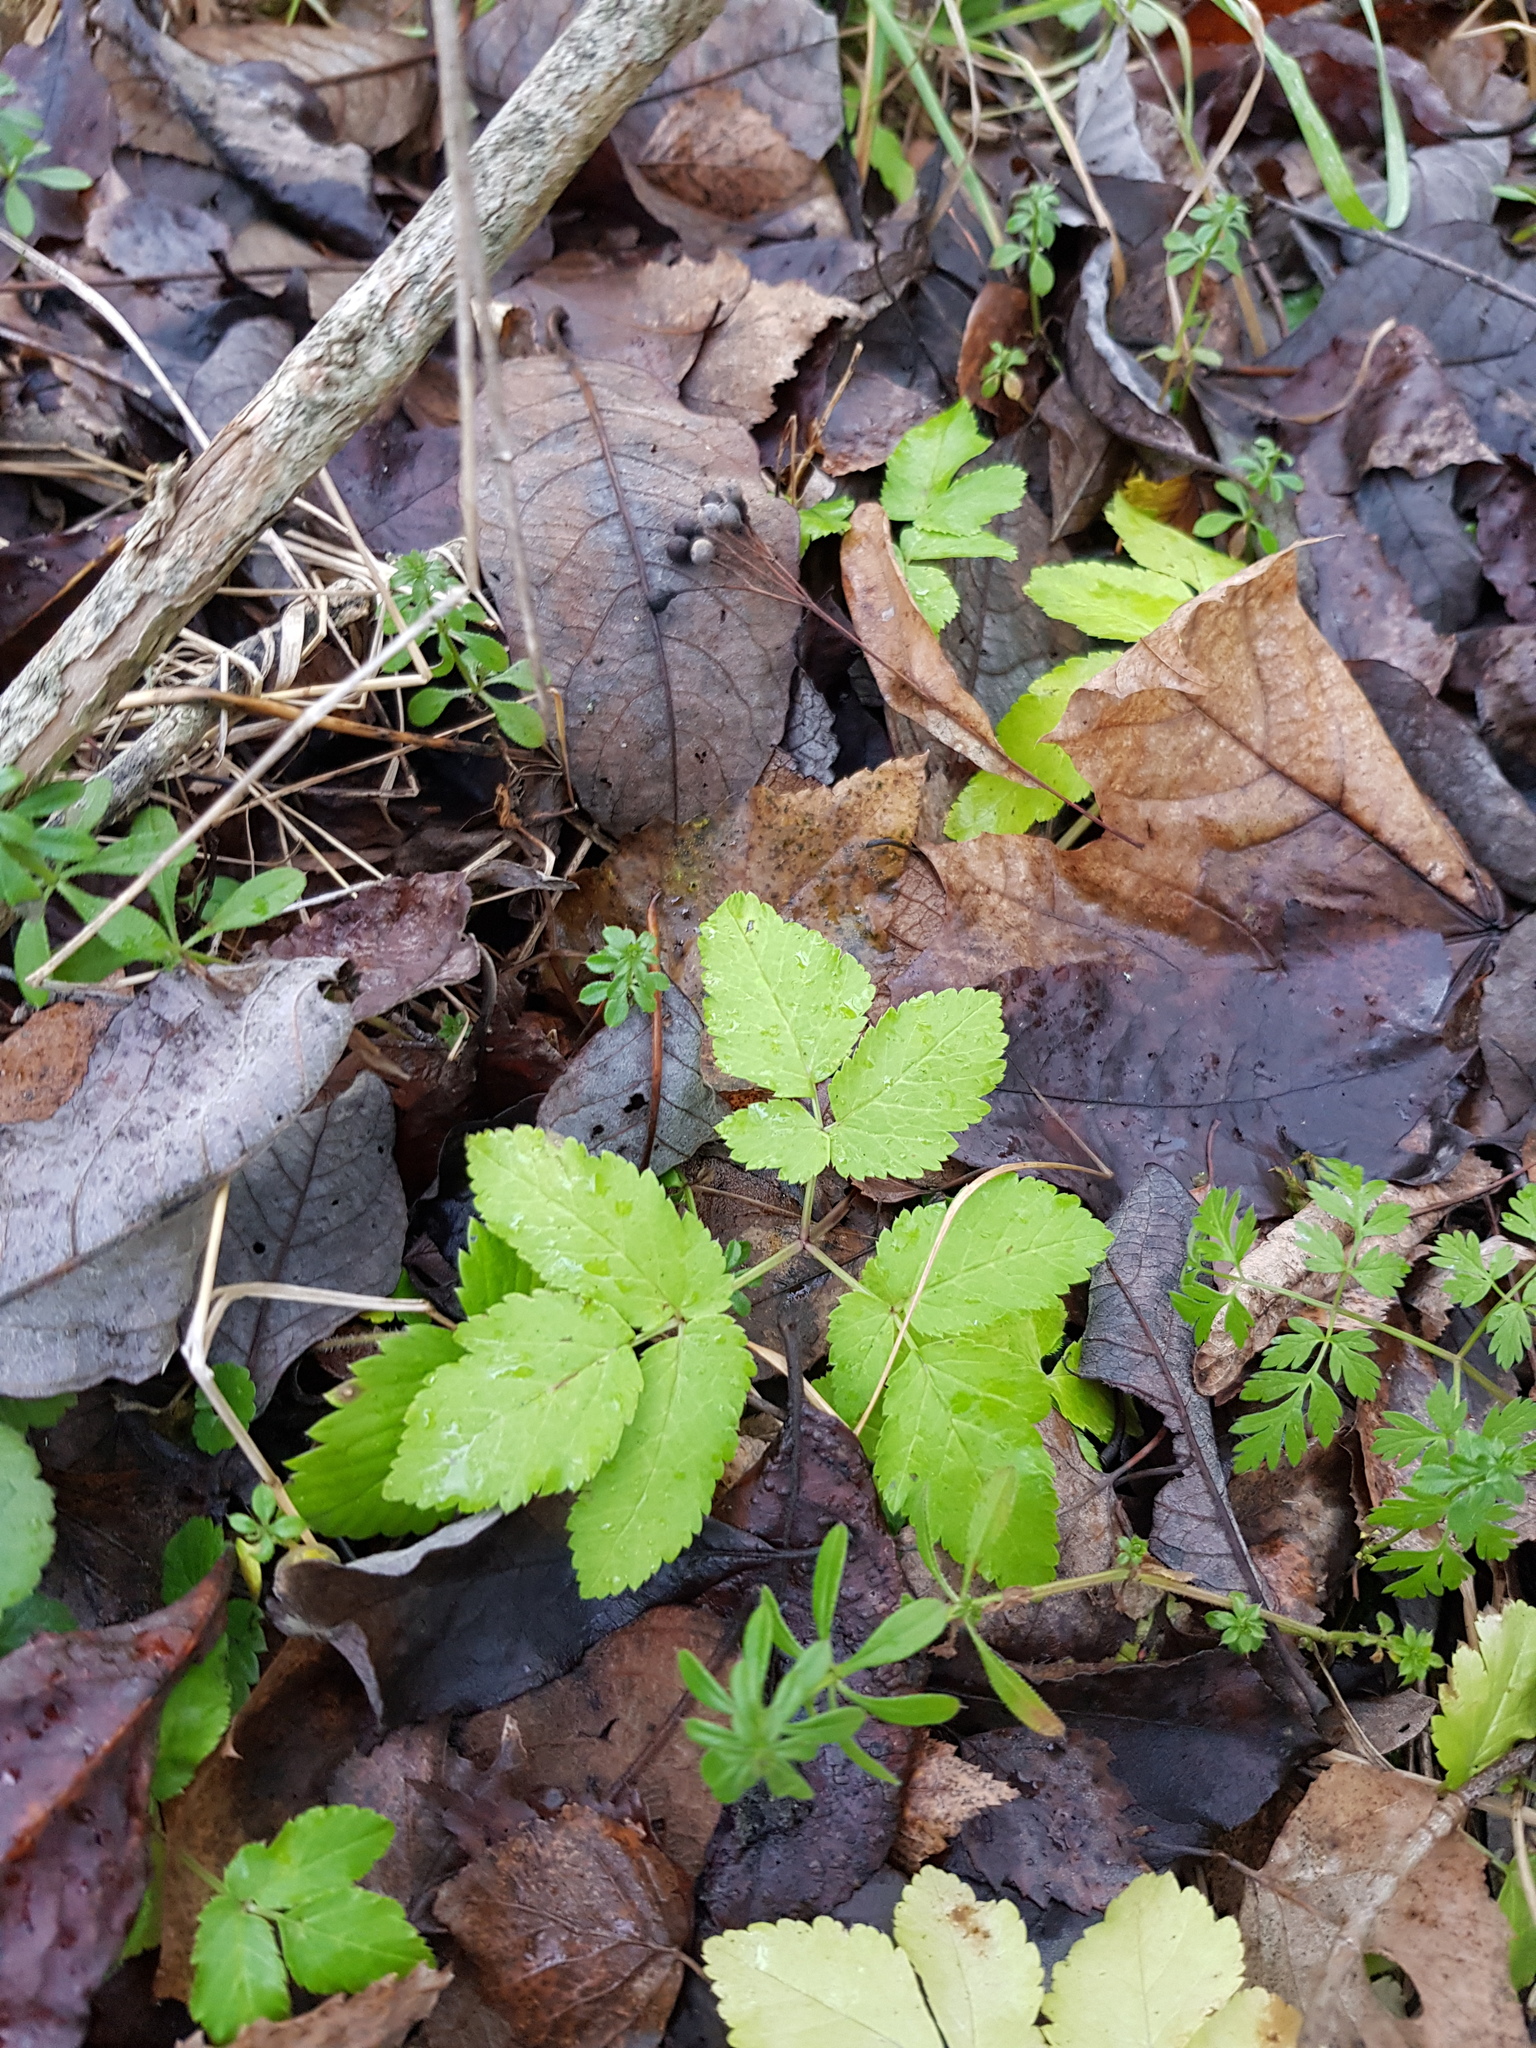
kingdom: Plantae
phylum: Tracheophyta
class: Magnoliopsida
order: Apiales
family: Apiaceae
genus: Aegopodium
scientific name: Aegopodium podagraria
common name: Ground-elder
